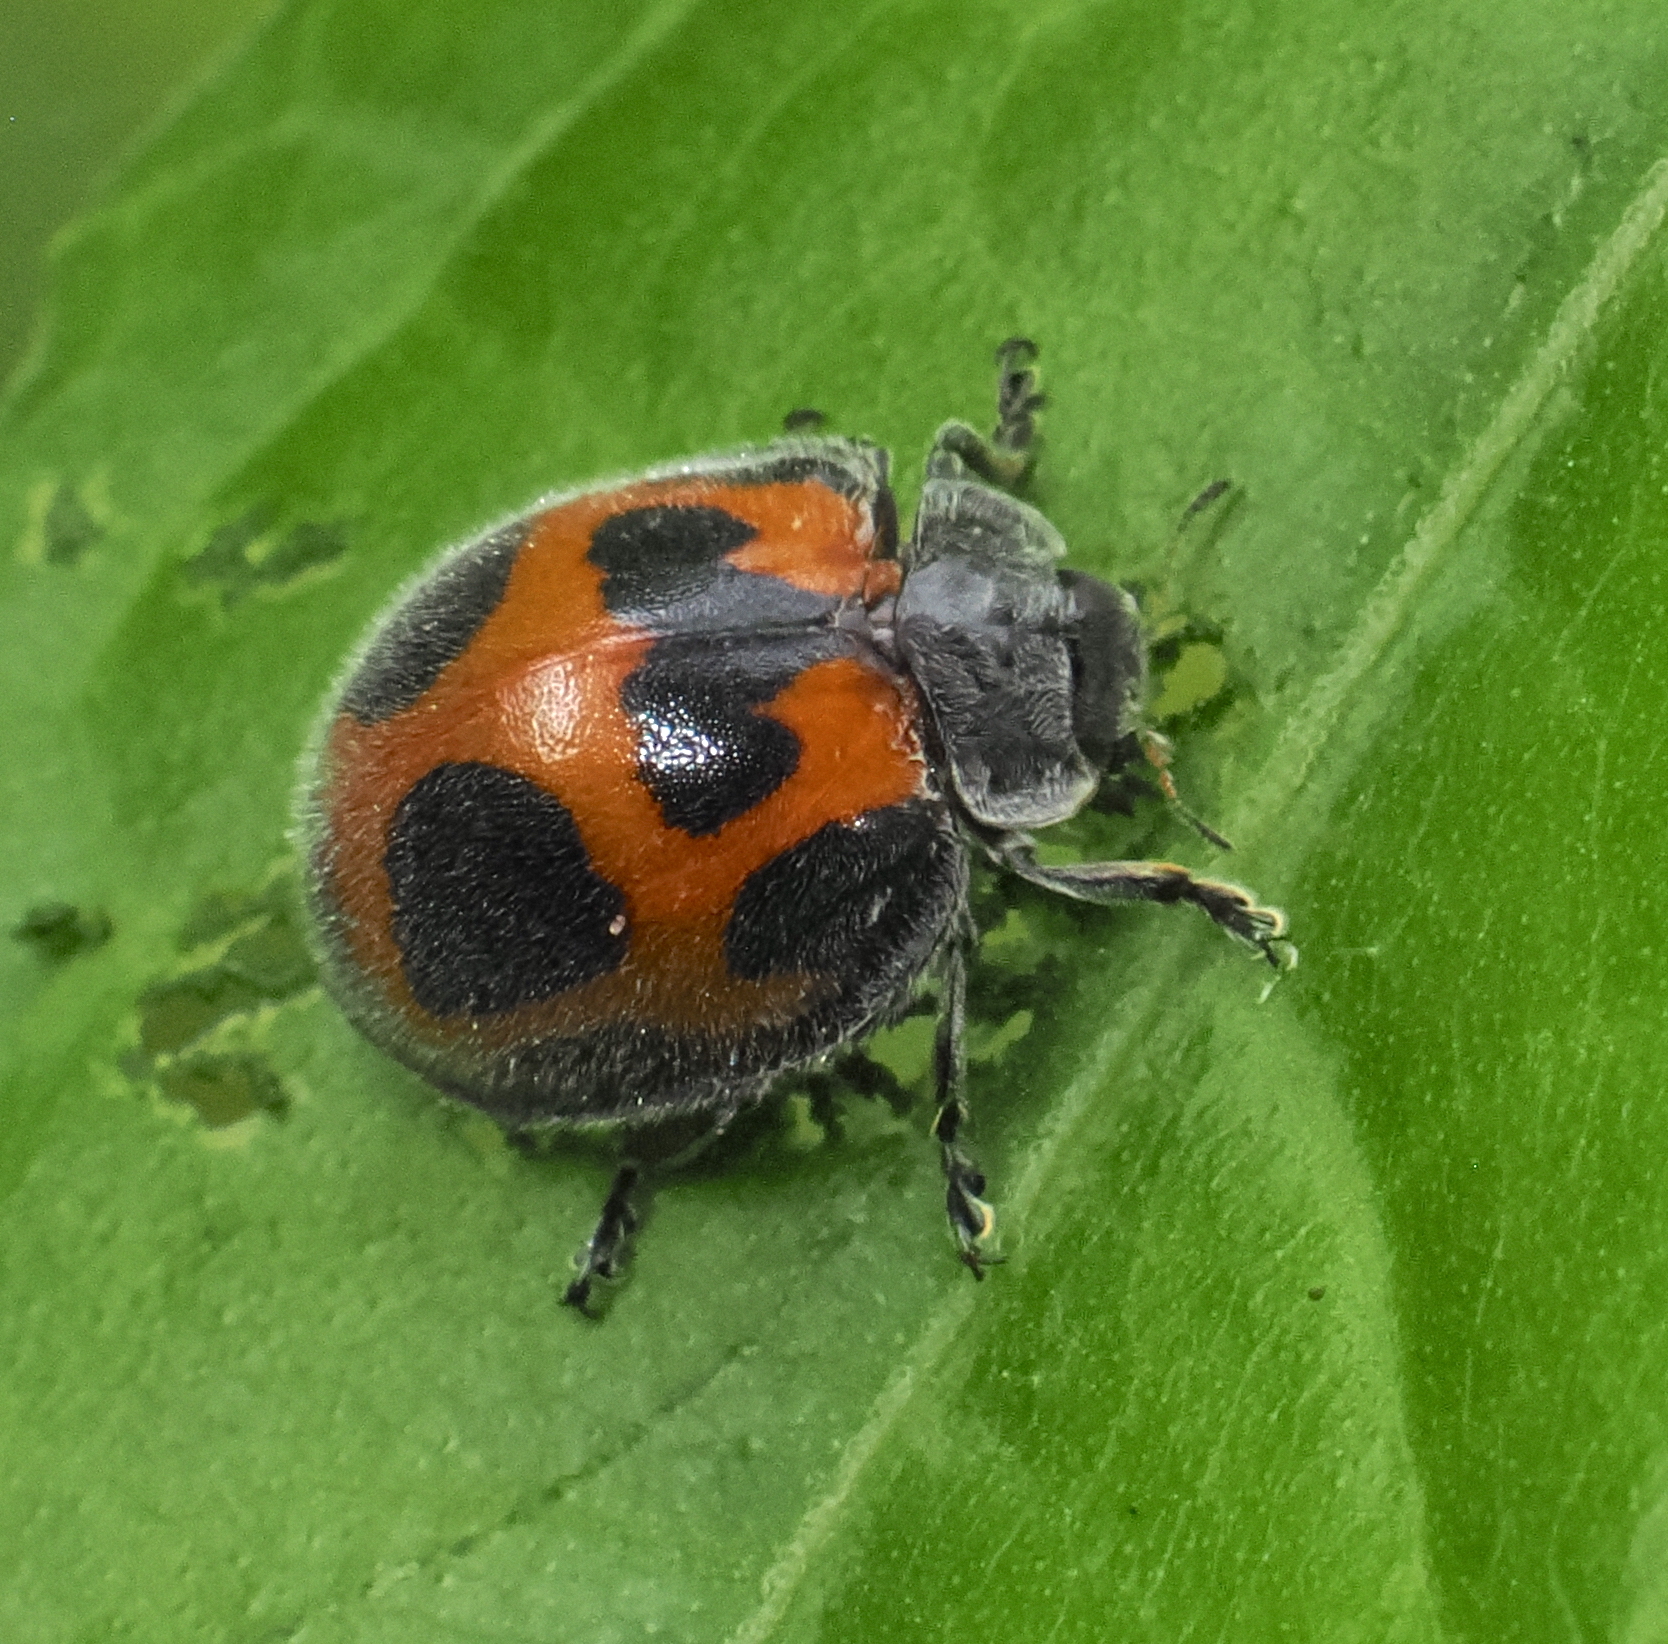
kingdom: Animalia
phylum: Arthropoda
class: Insecta
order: Coleoptera
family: Coccinellidae
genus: Epilachna
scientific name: Epilachna
